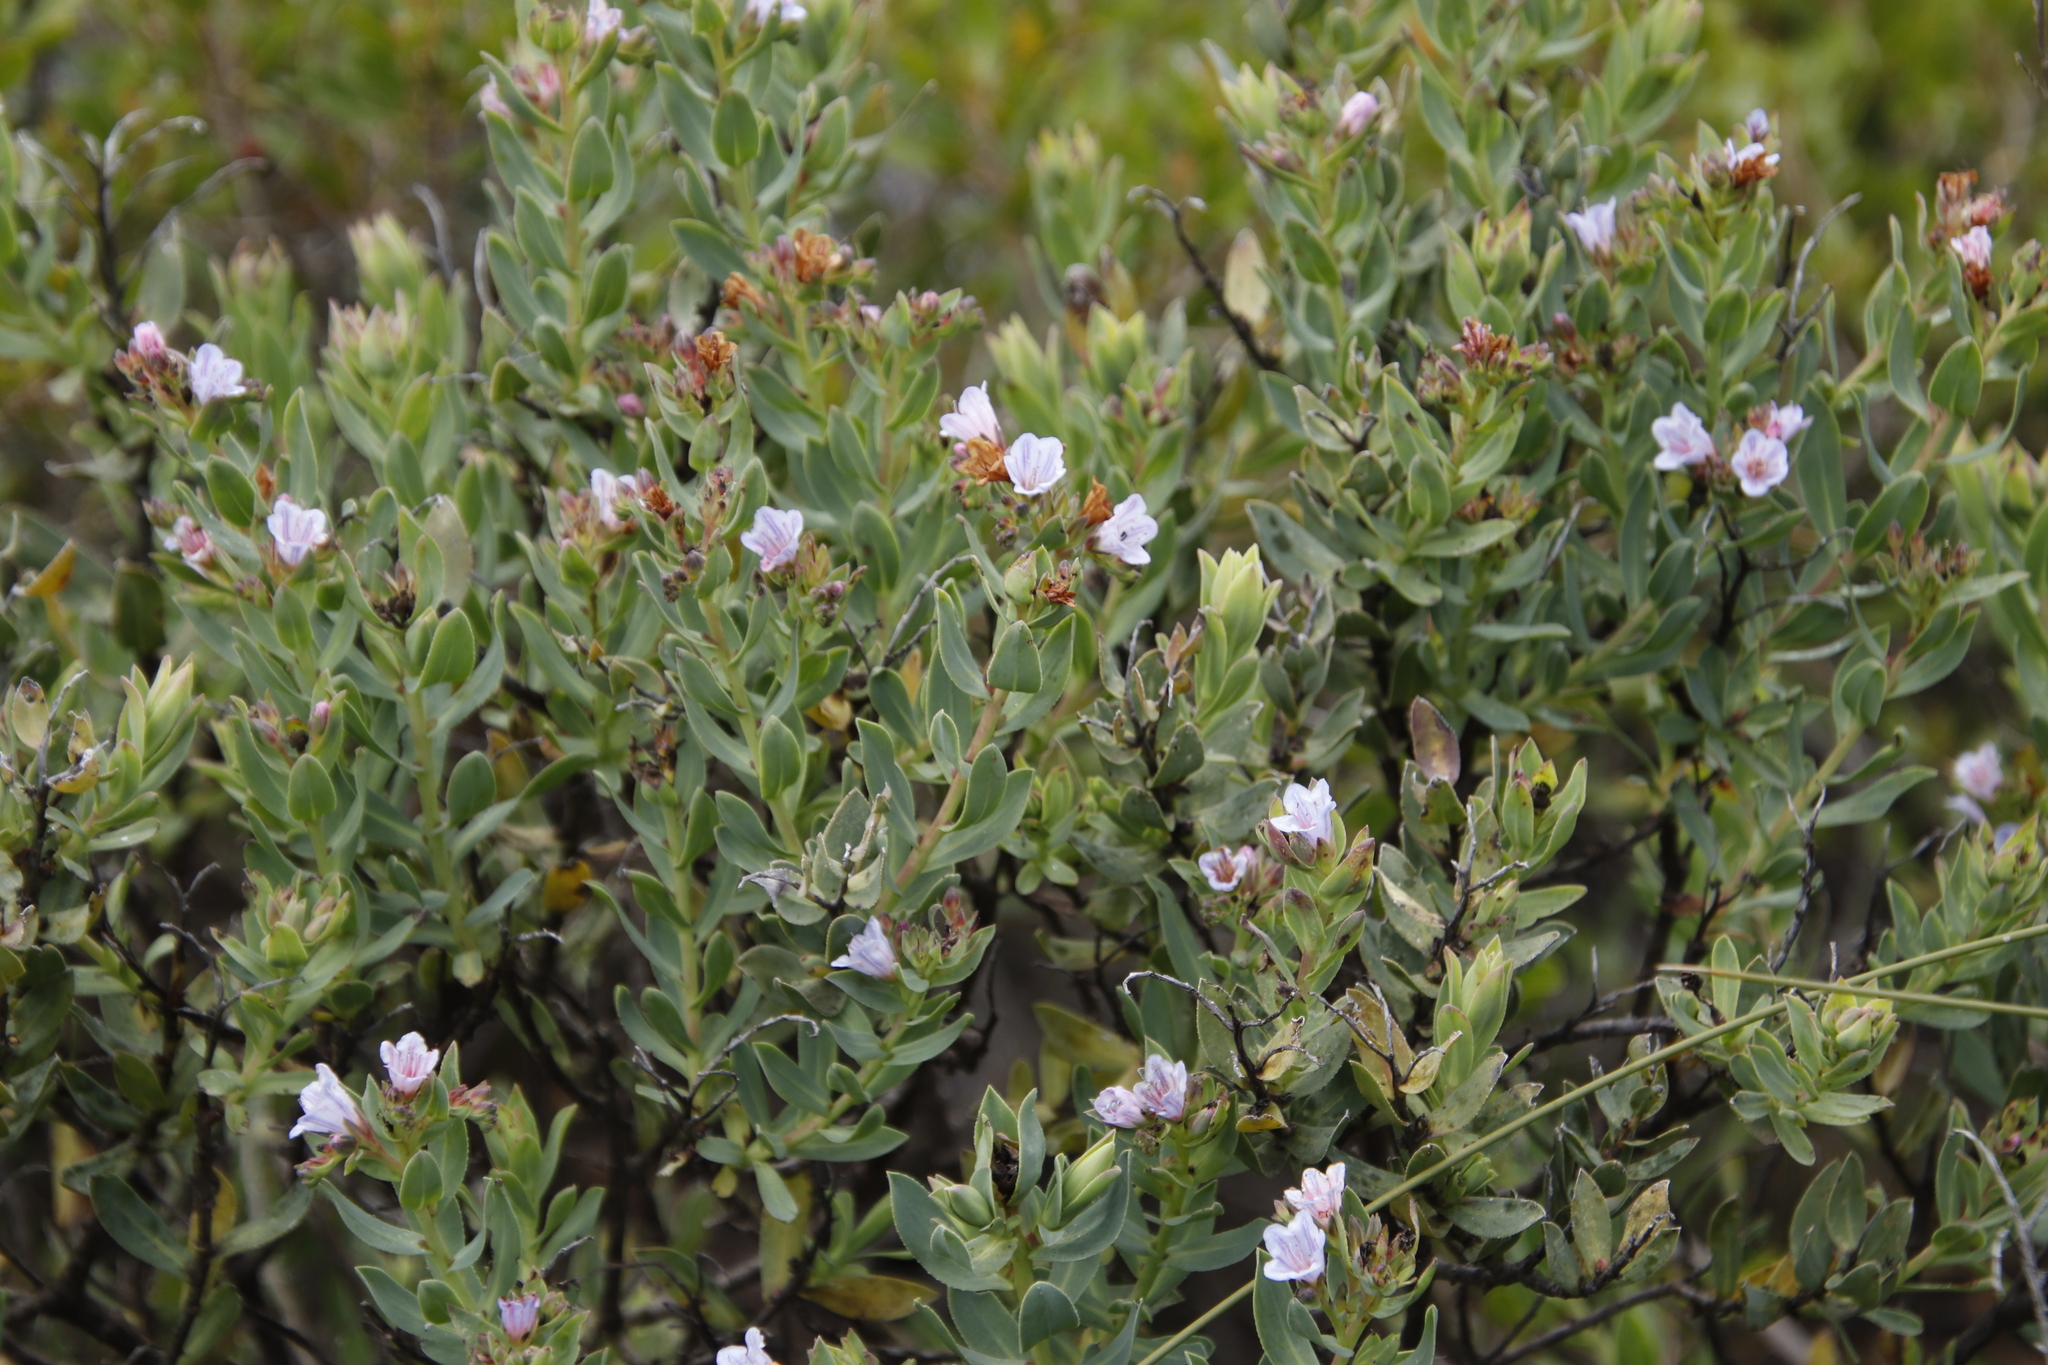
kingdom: Plantae
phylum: Tracheophyta
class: Magnoliopsida
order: Boraginales
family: Boraginaceae
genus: Lobostemon
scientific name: Lobostemon glaucophyllus
